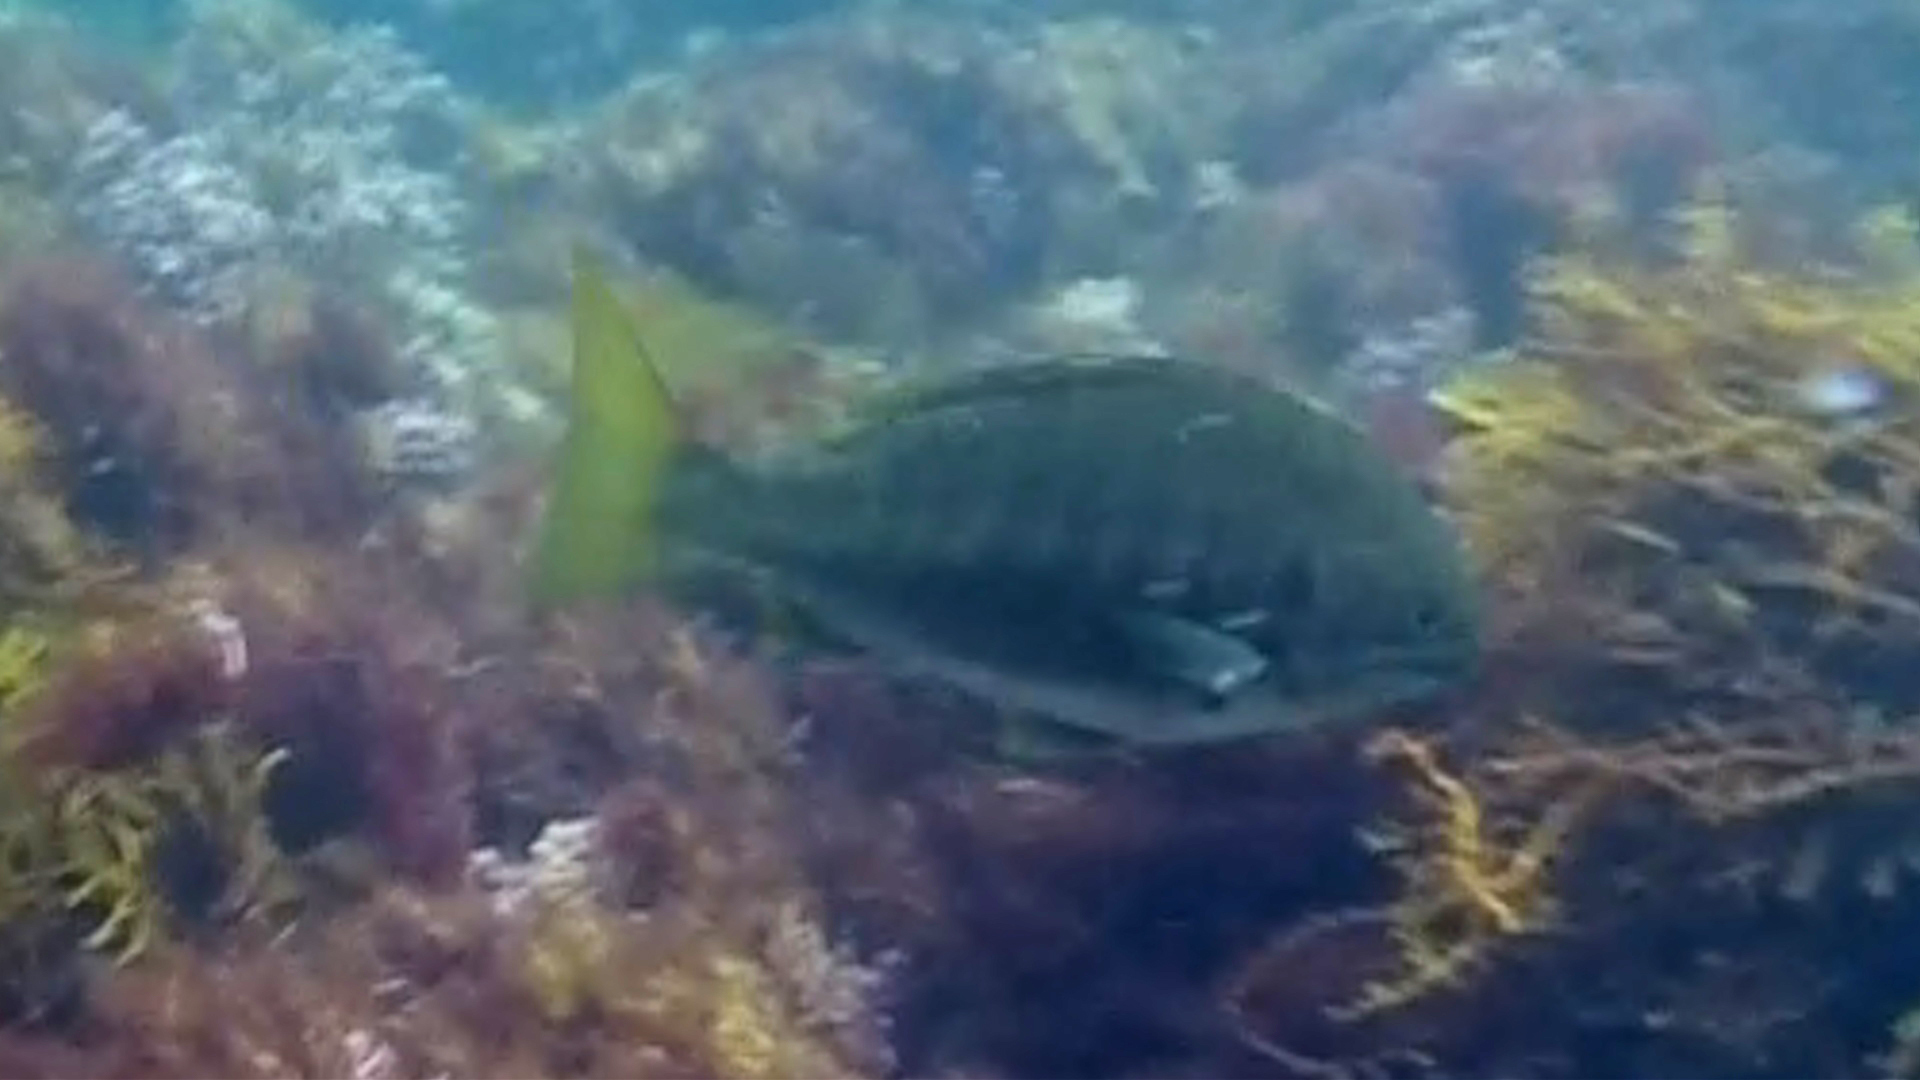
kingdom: Animalia
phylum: Chordata
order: Perciformes
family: Kyphosidae
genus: Kyphosus
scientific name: Kyphosus azureus
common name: Perch
